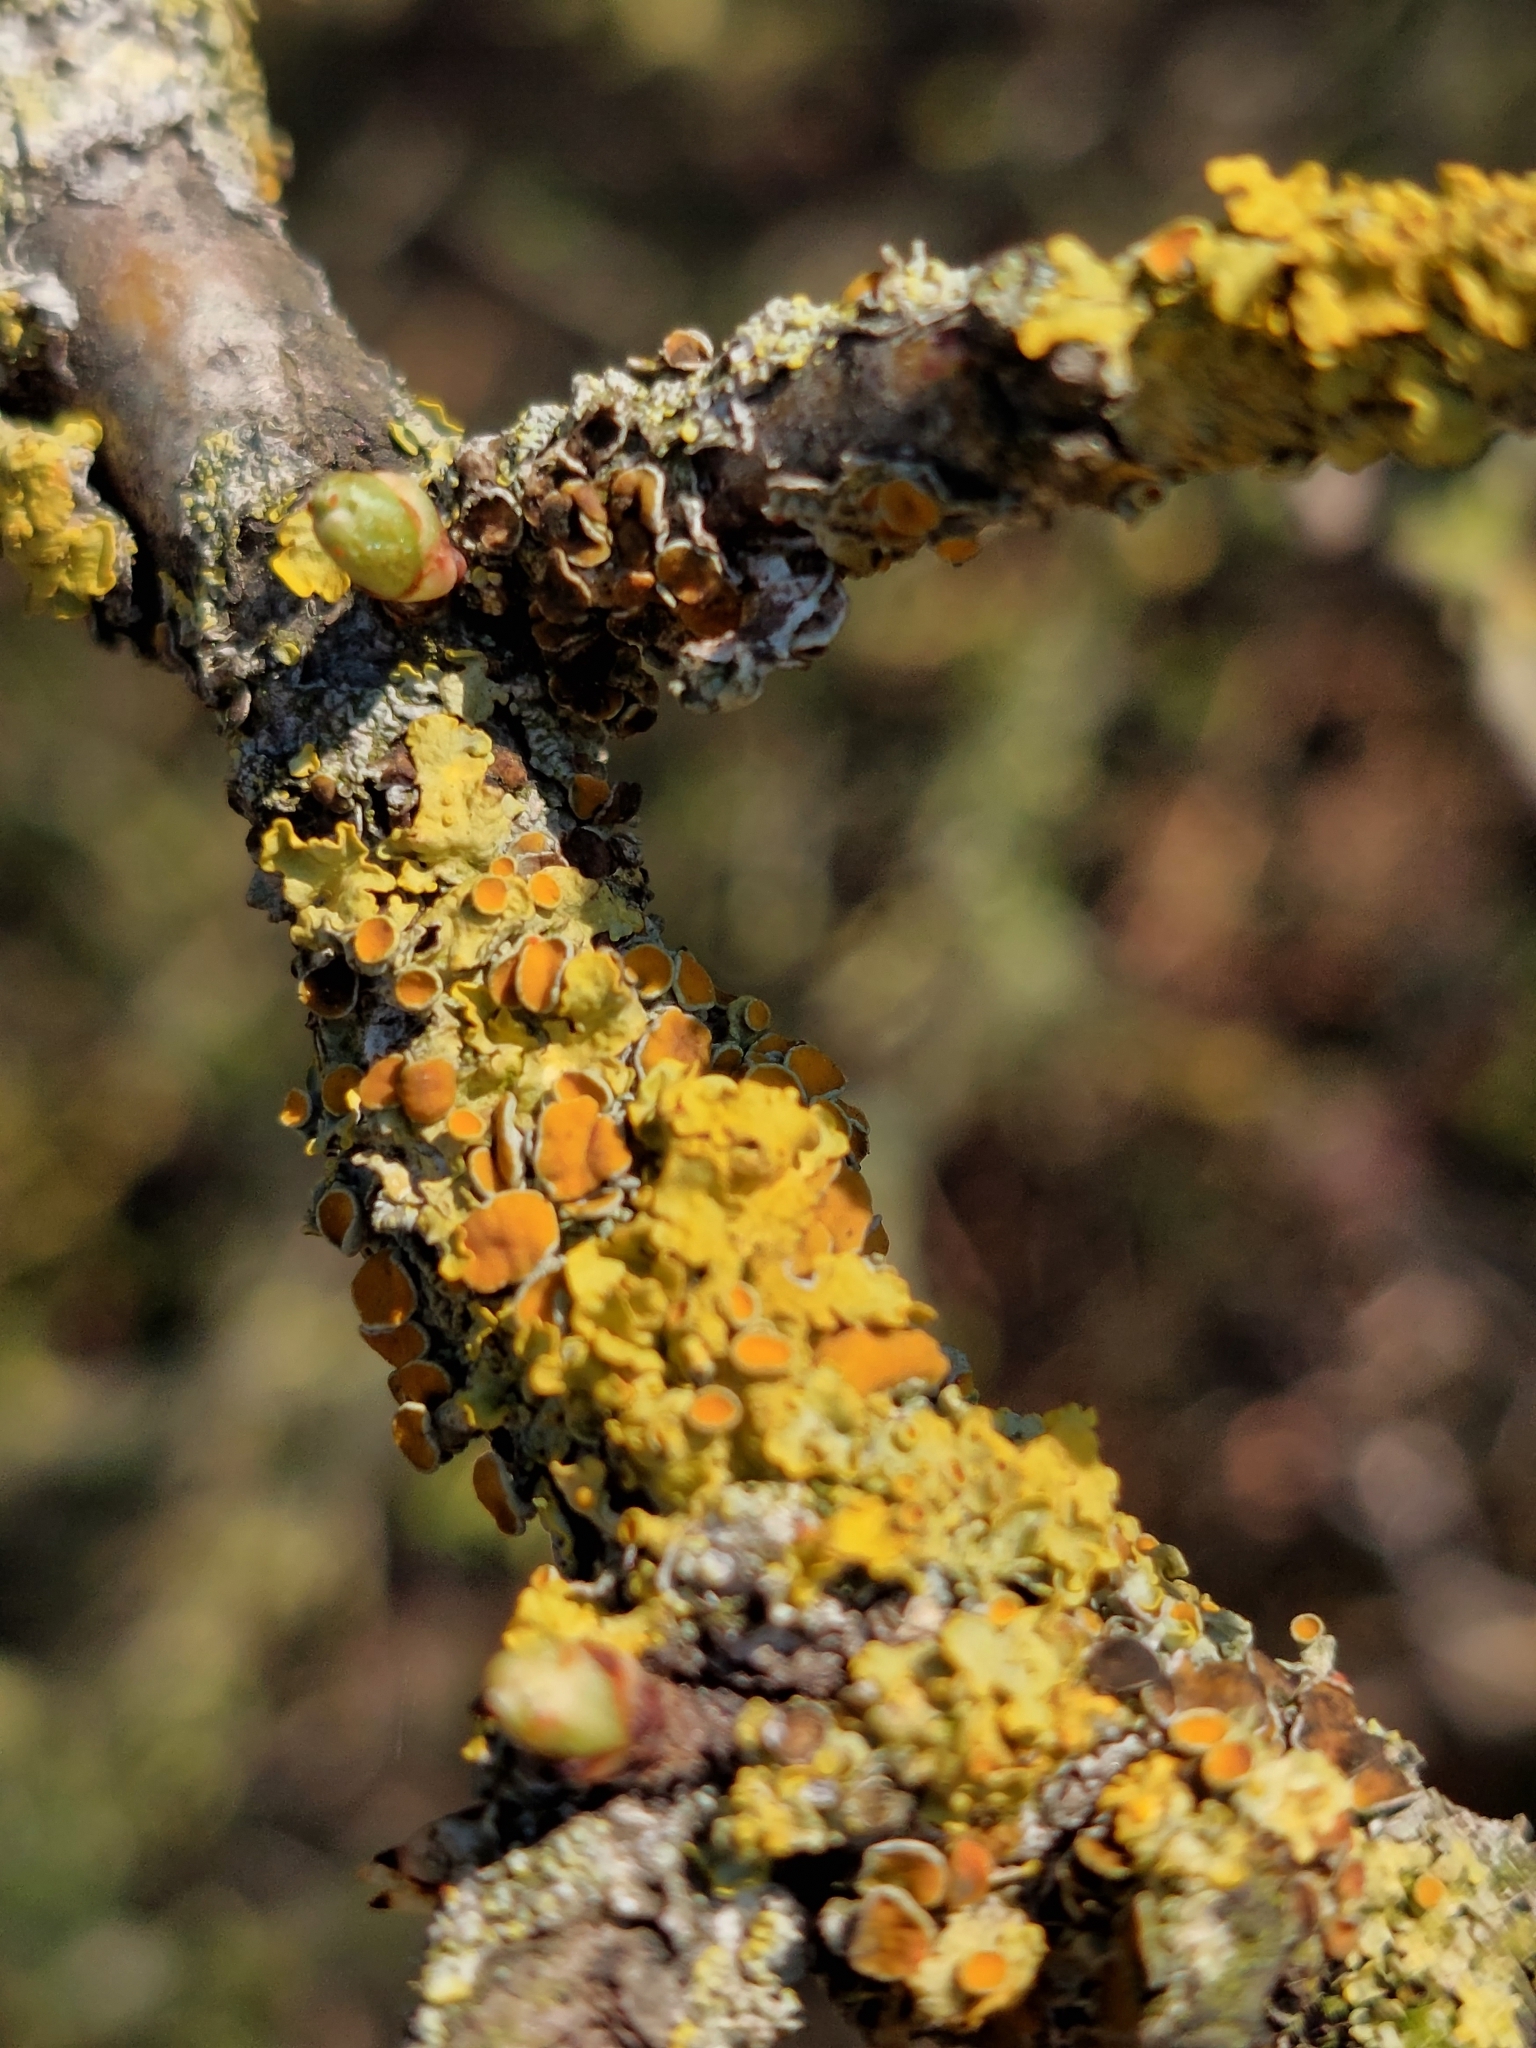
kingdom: Fungi
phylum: Ascomycota
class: Lecanoromycetes
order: Teloschistales
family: Teloschistaceae
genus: Xanthoria
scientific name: Xanthoria parietina
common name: Common orange lichen
